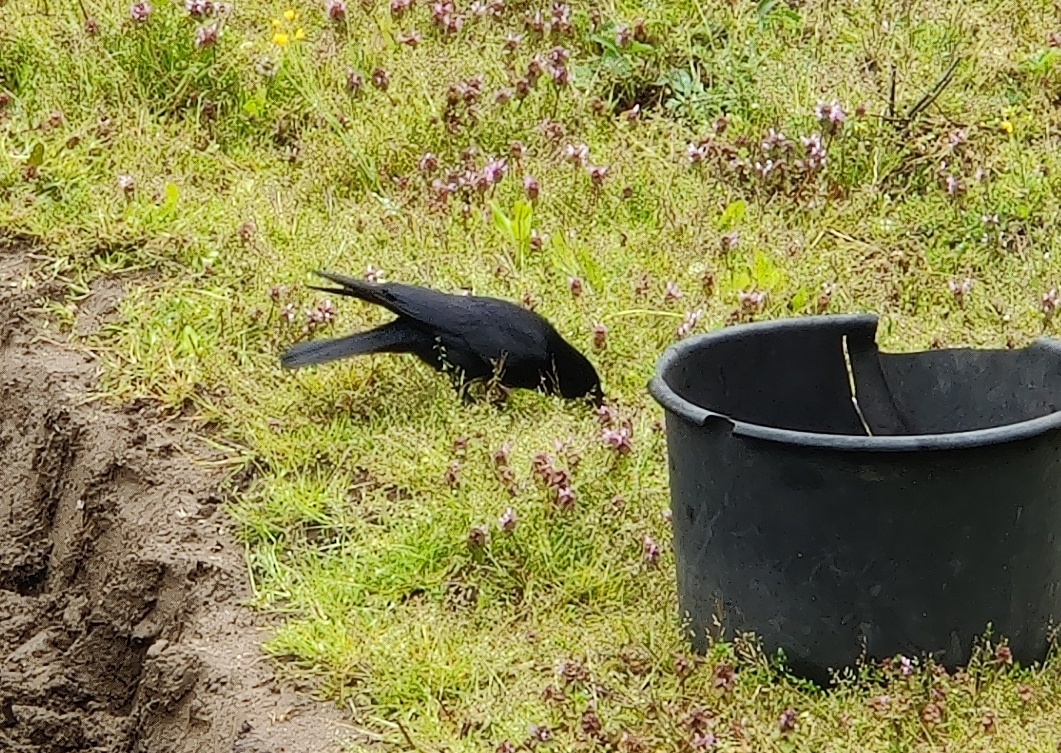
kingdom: Animalia
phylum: Chordata
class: Aves
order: Passeriformes
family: Corvidae
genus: Corvus
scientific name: Corvus corone
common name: Carrion crow
